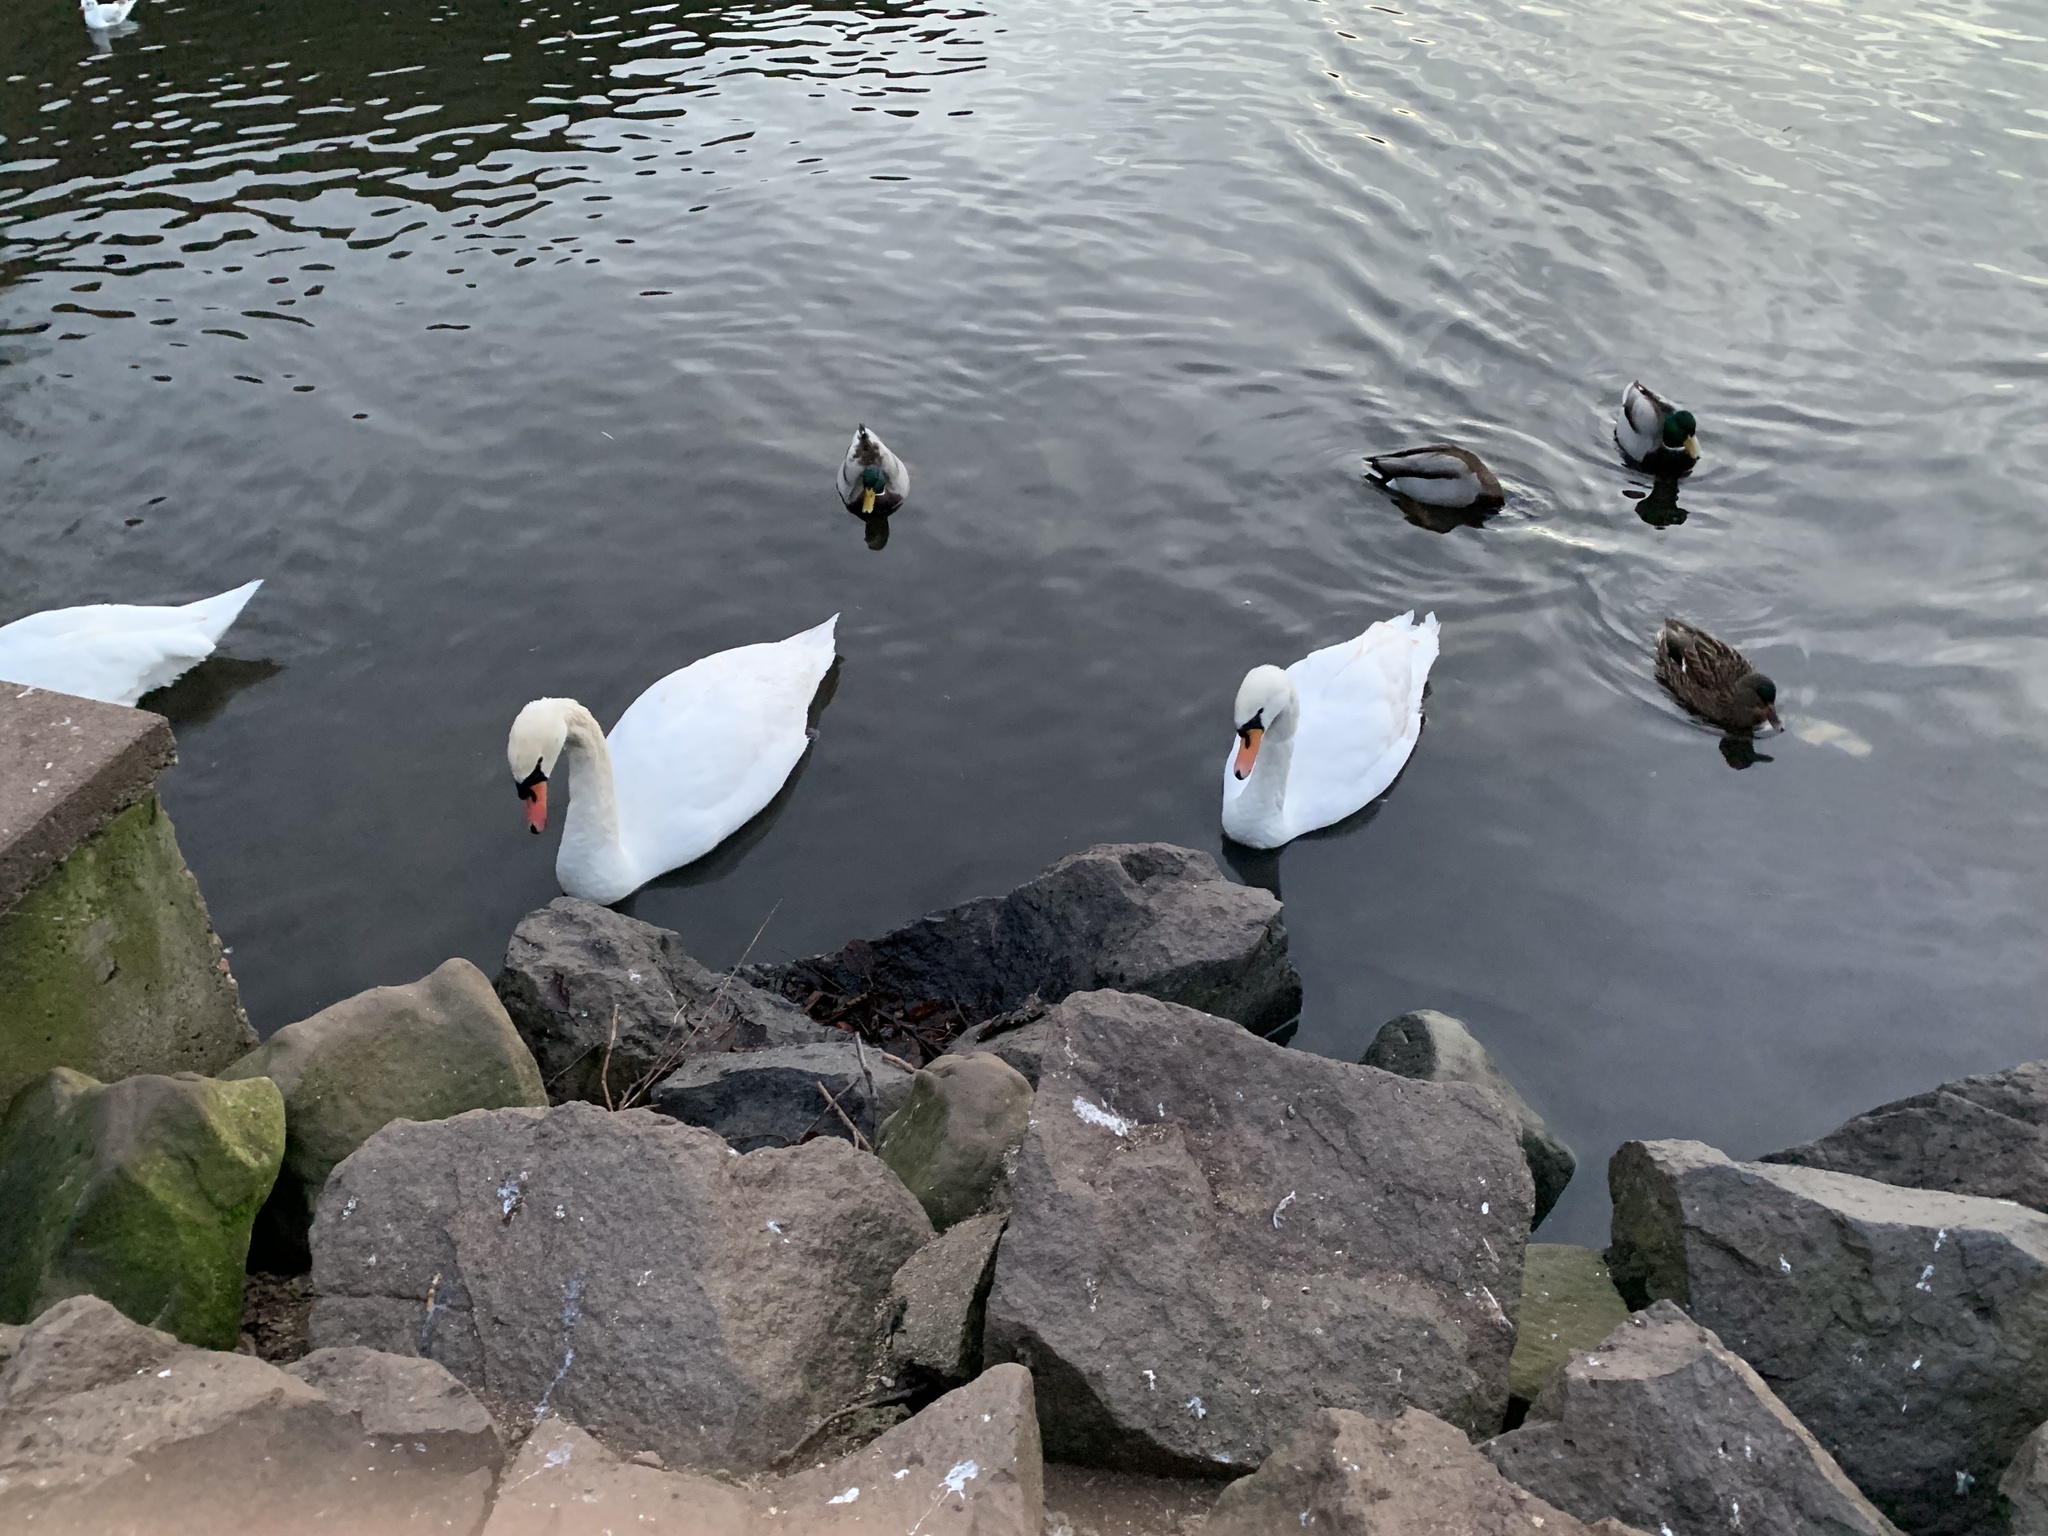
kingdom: Animalia
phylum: Chordata
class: Aves
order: Anseriformes
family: Anatidae
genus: Cygnus
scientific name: Cygnus olor
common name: Mute swan
